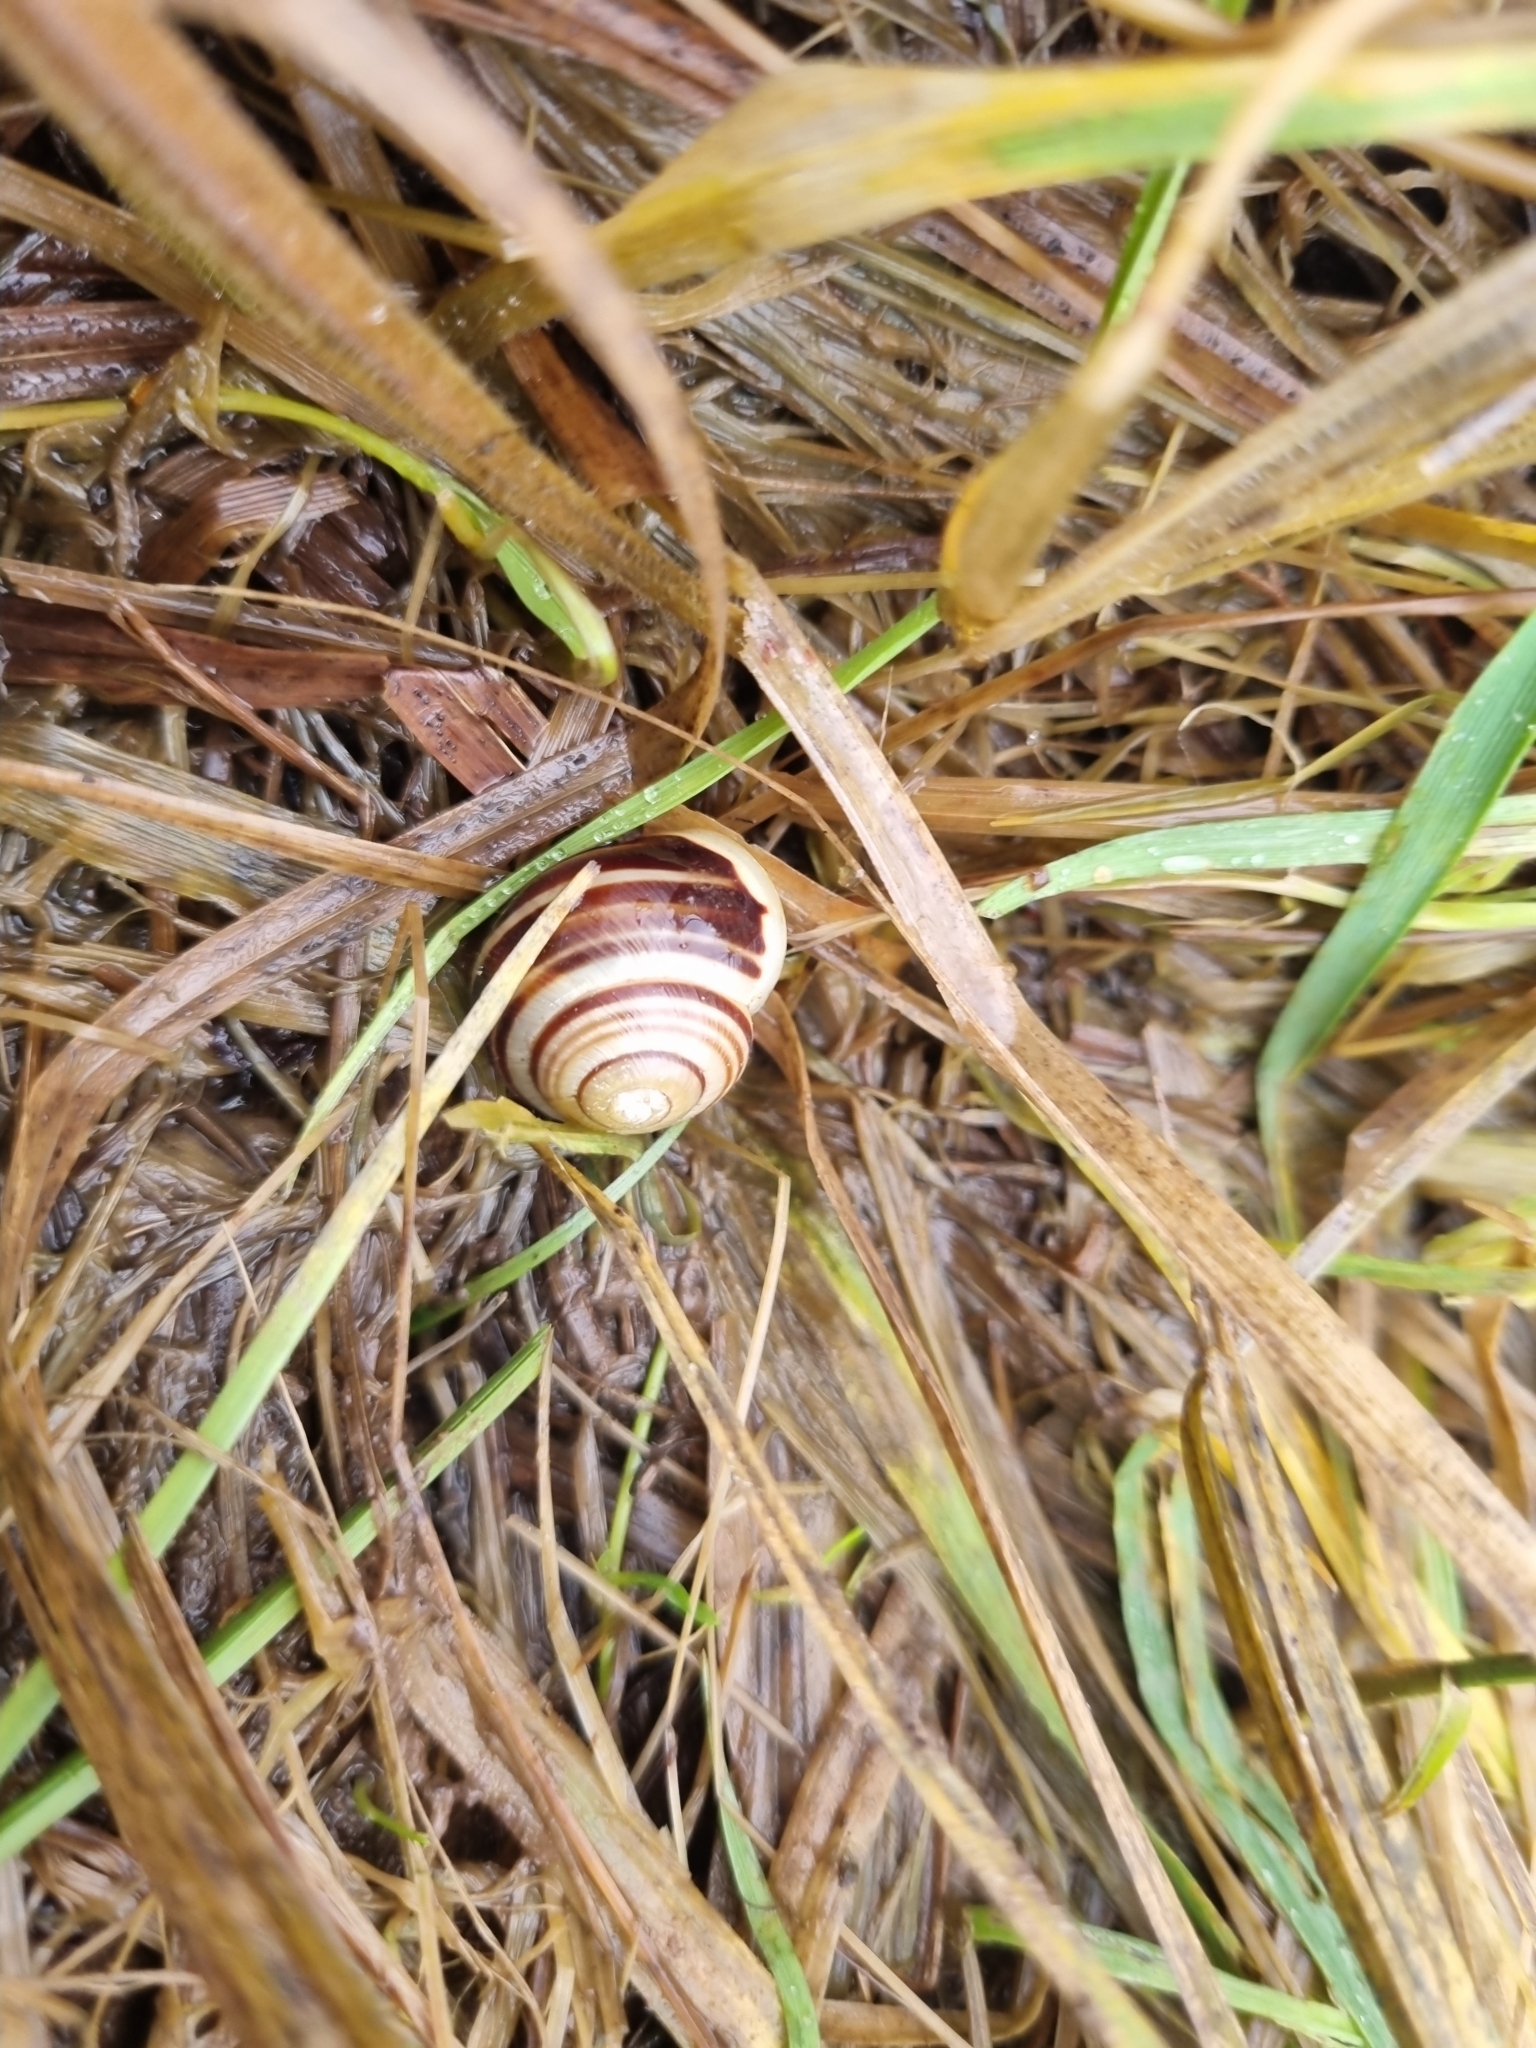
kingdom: Animalia
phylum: Mollusca
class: Gastropoda
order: Stylommatophora
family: Helicidae
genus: Cepaea
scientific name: Cepaea hortensis
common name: White-lip gardensnail
